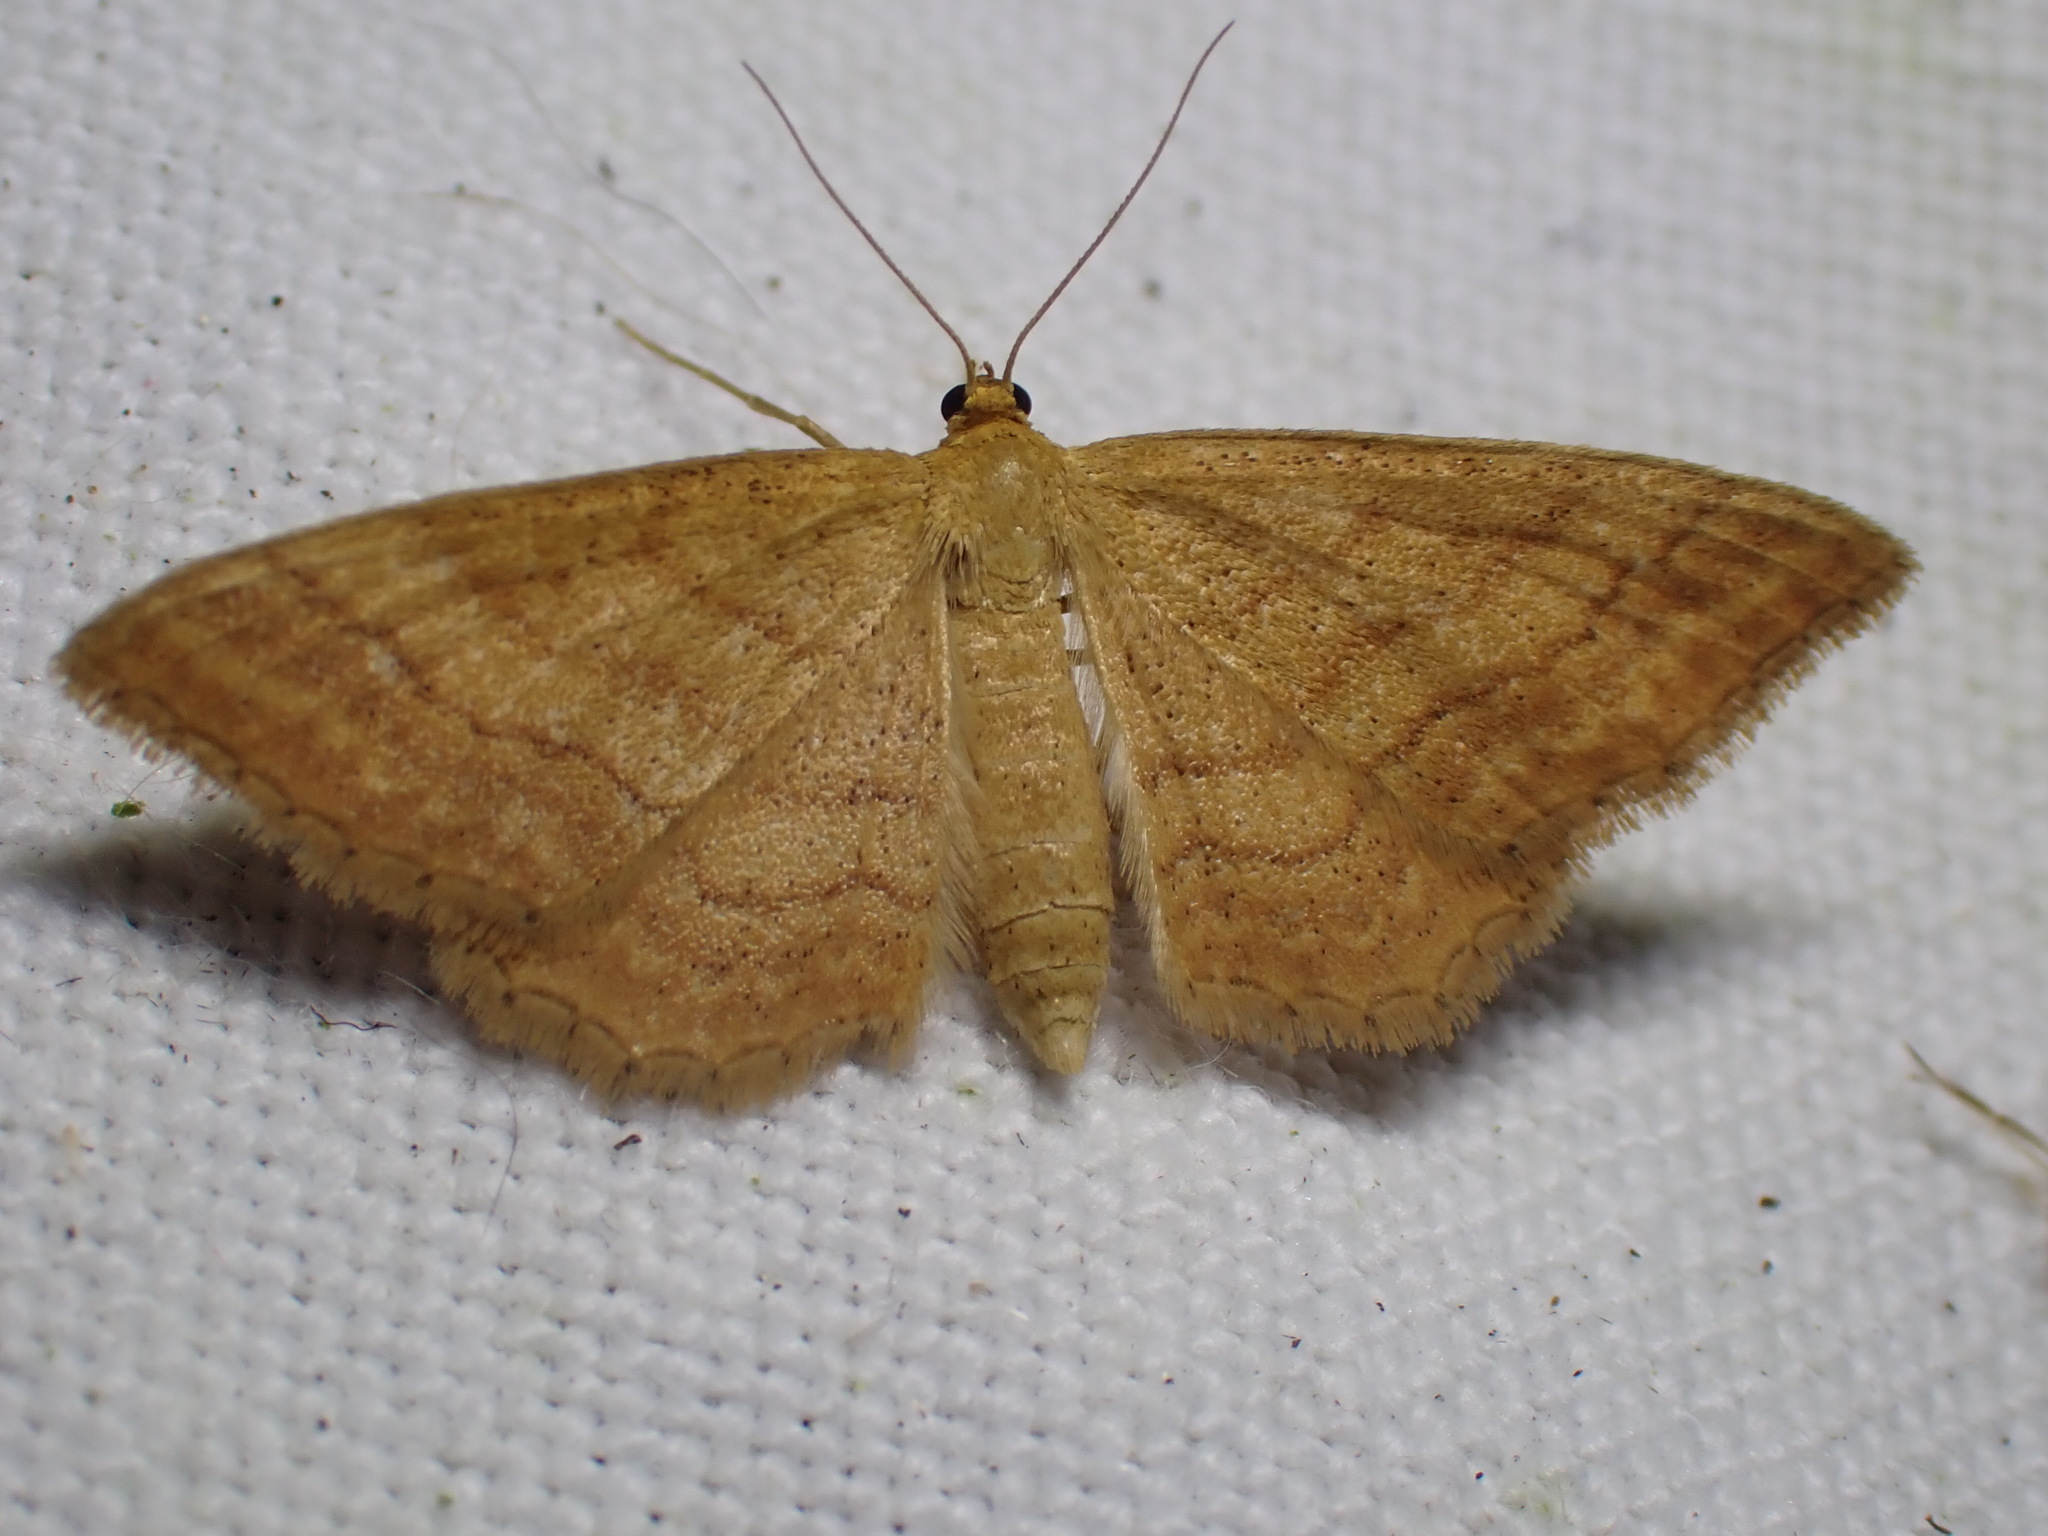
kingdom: Animalia
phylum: Arthropoda
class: Insecta
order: Lepidoptera
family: Geometridae
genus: Idaea
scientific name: Idaea ochrata
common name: Bright wave
